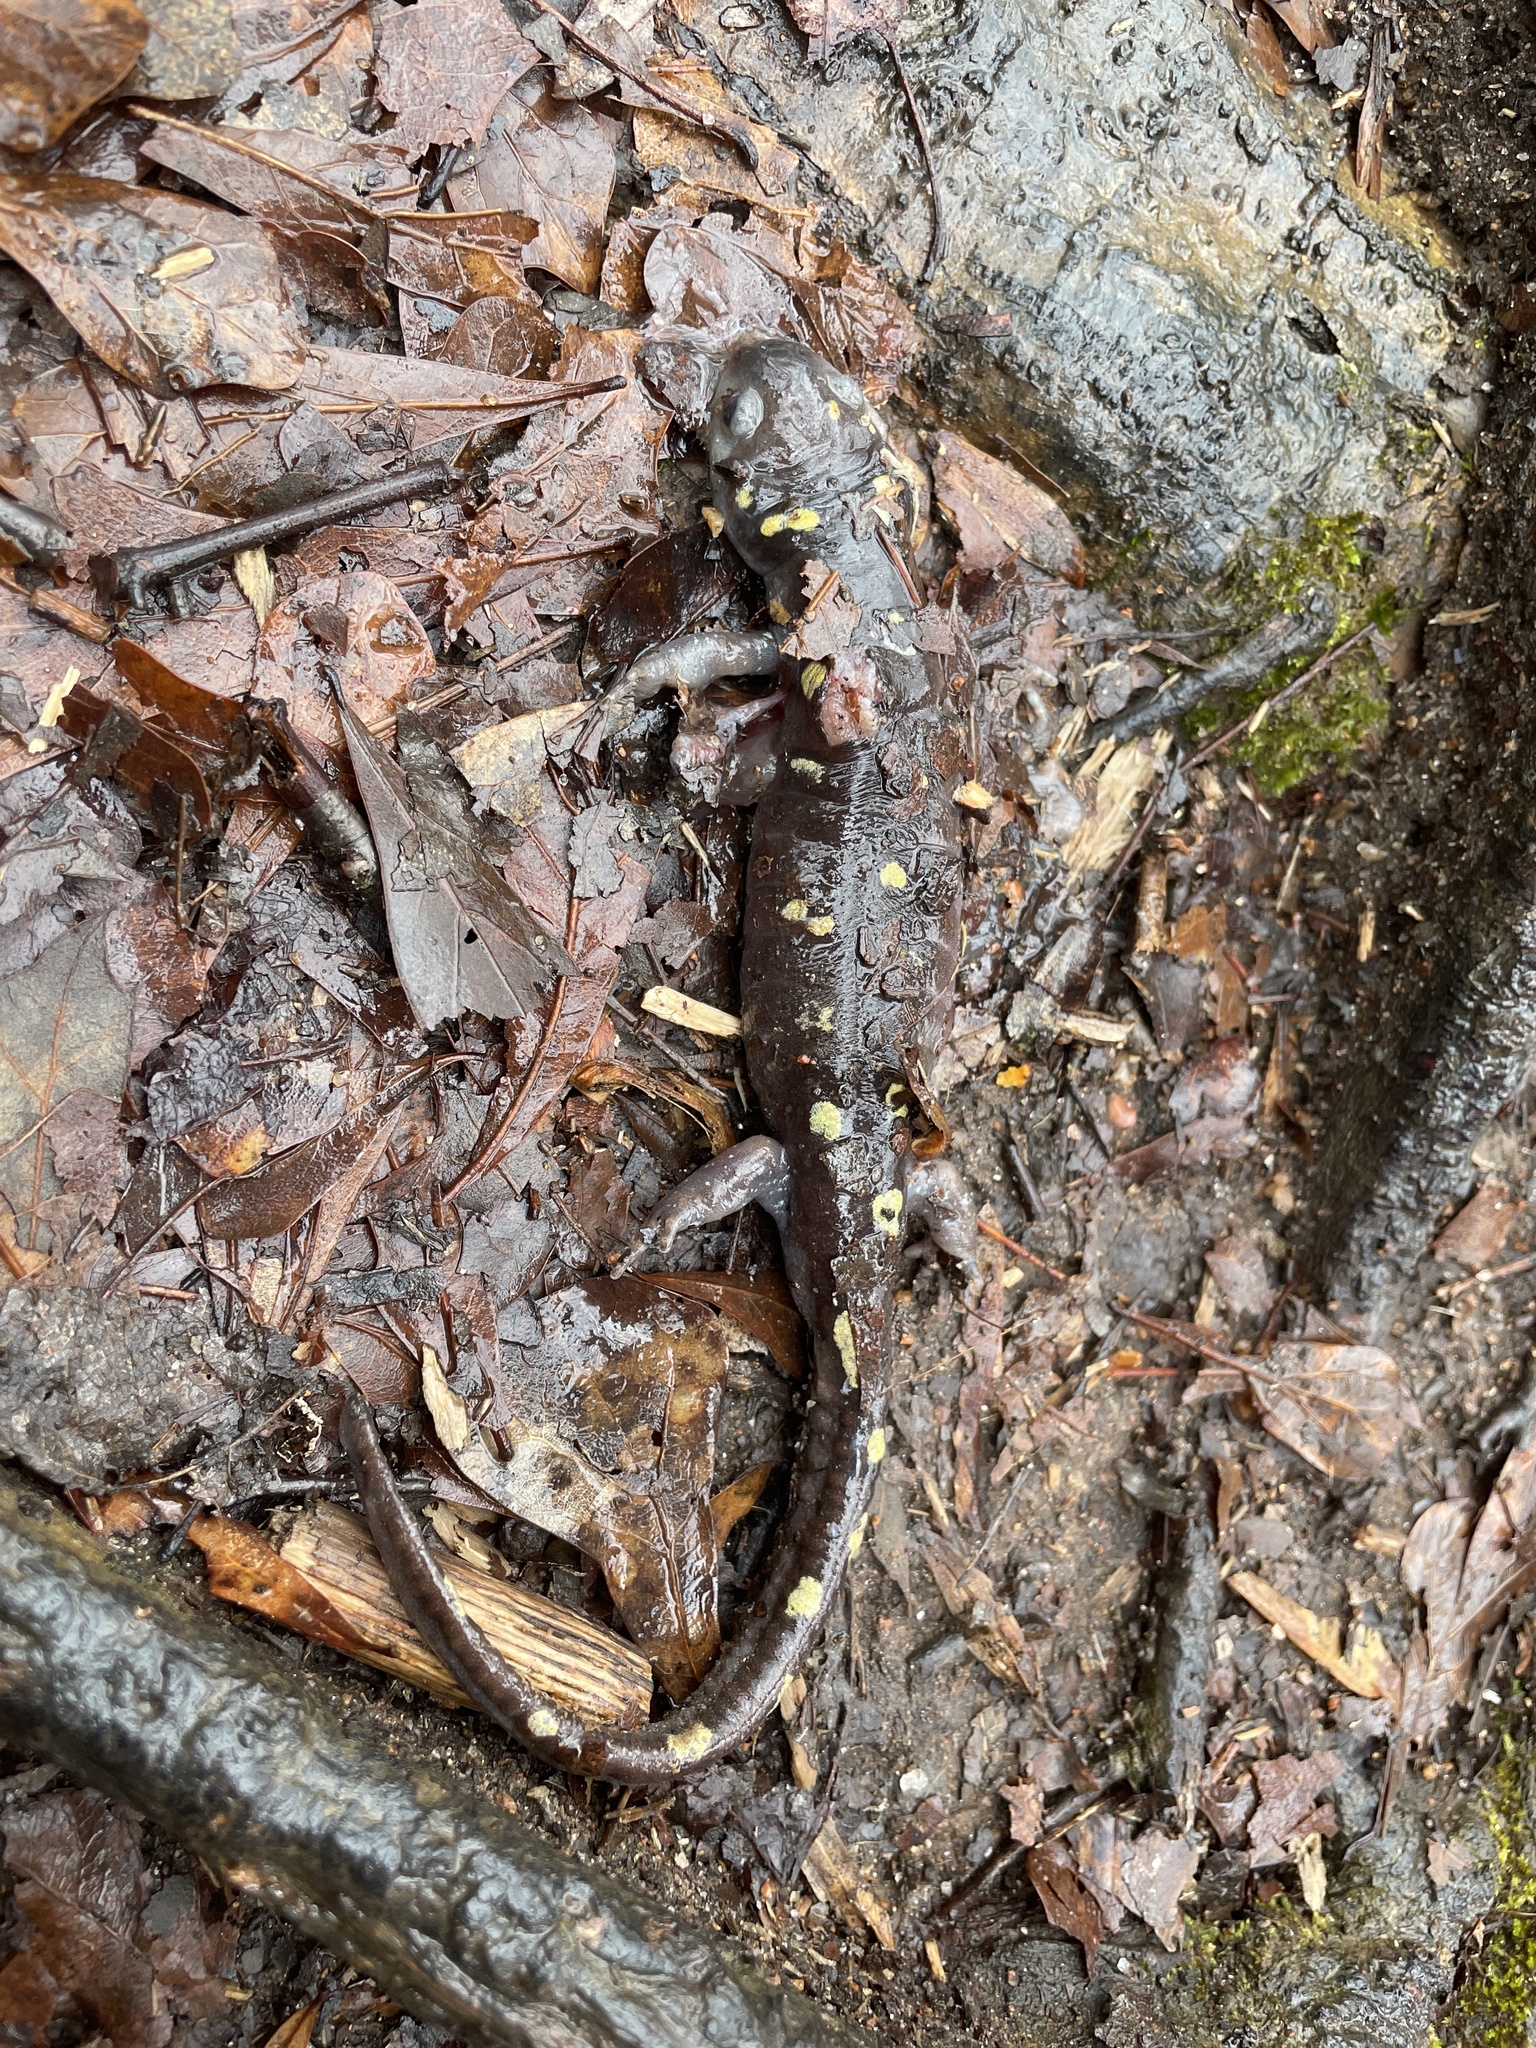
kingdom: Animalia
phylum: Chordata
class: Amphibia
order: Caudata
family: Ambystomatidae
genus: Ambystoma
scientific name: Ambystoma maculatum
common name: Spotted salamander
